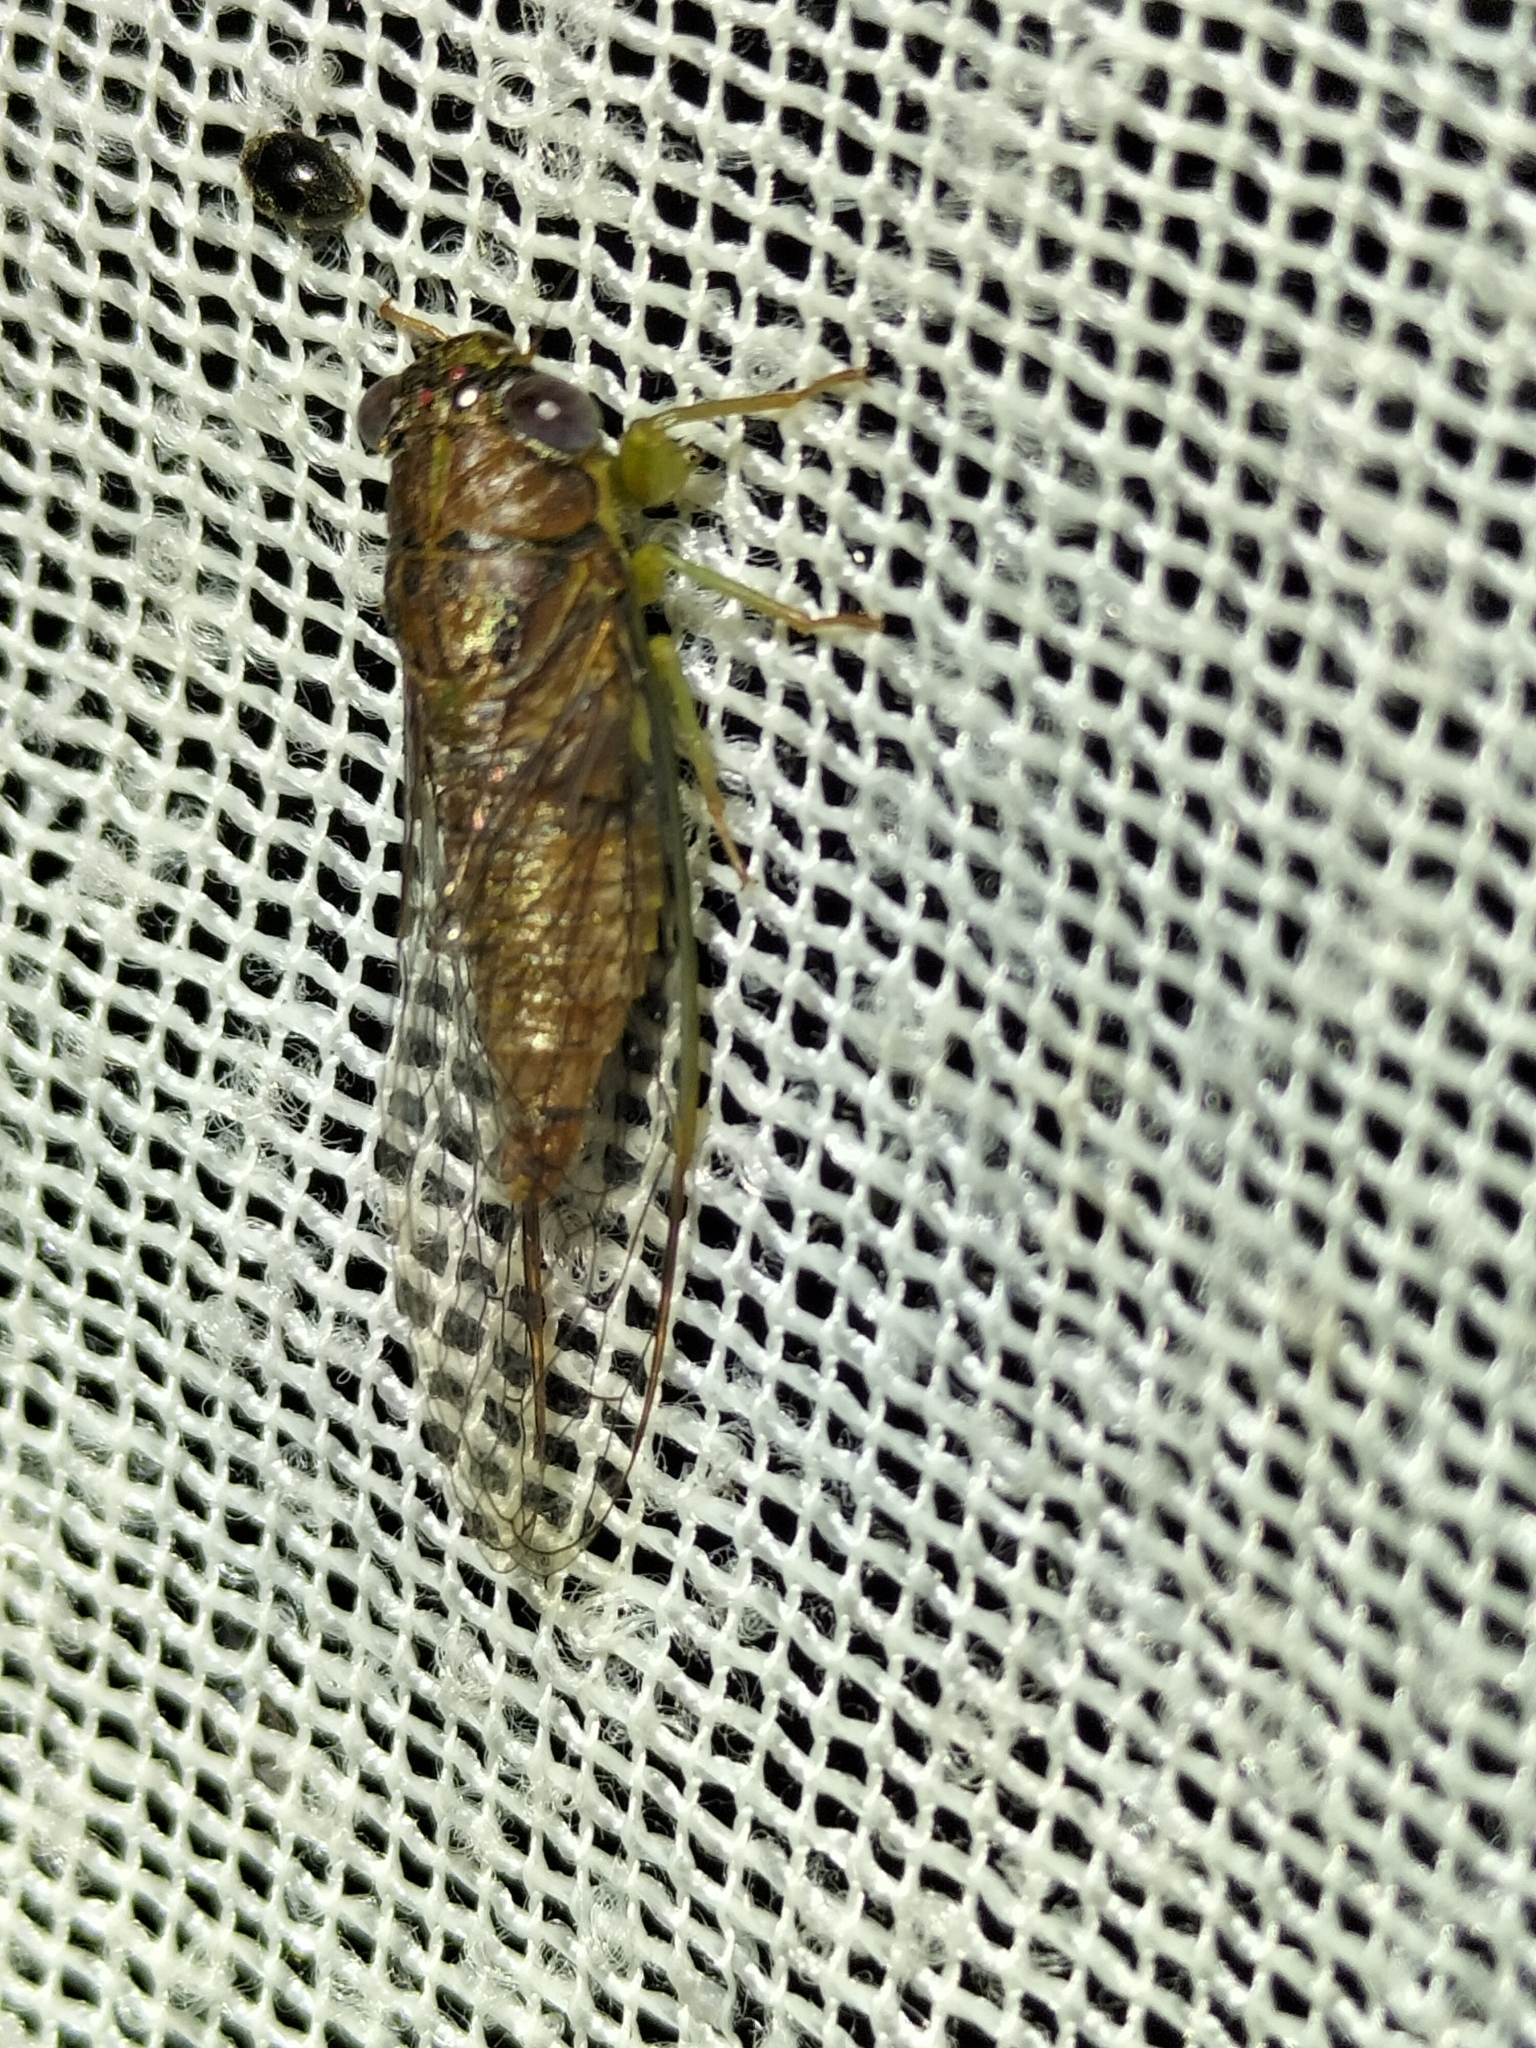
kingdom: Animalia
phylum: Arthropoda
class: Insecta
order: Hemiptera
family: Cicadidae
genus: Taurella
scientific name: Taurella forresti
